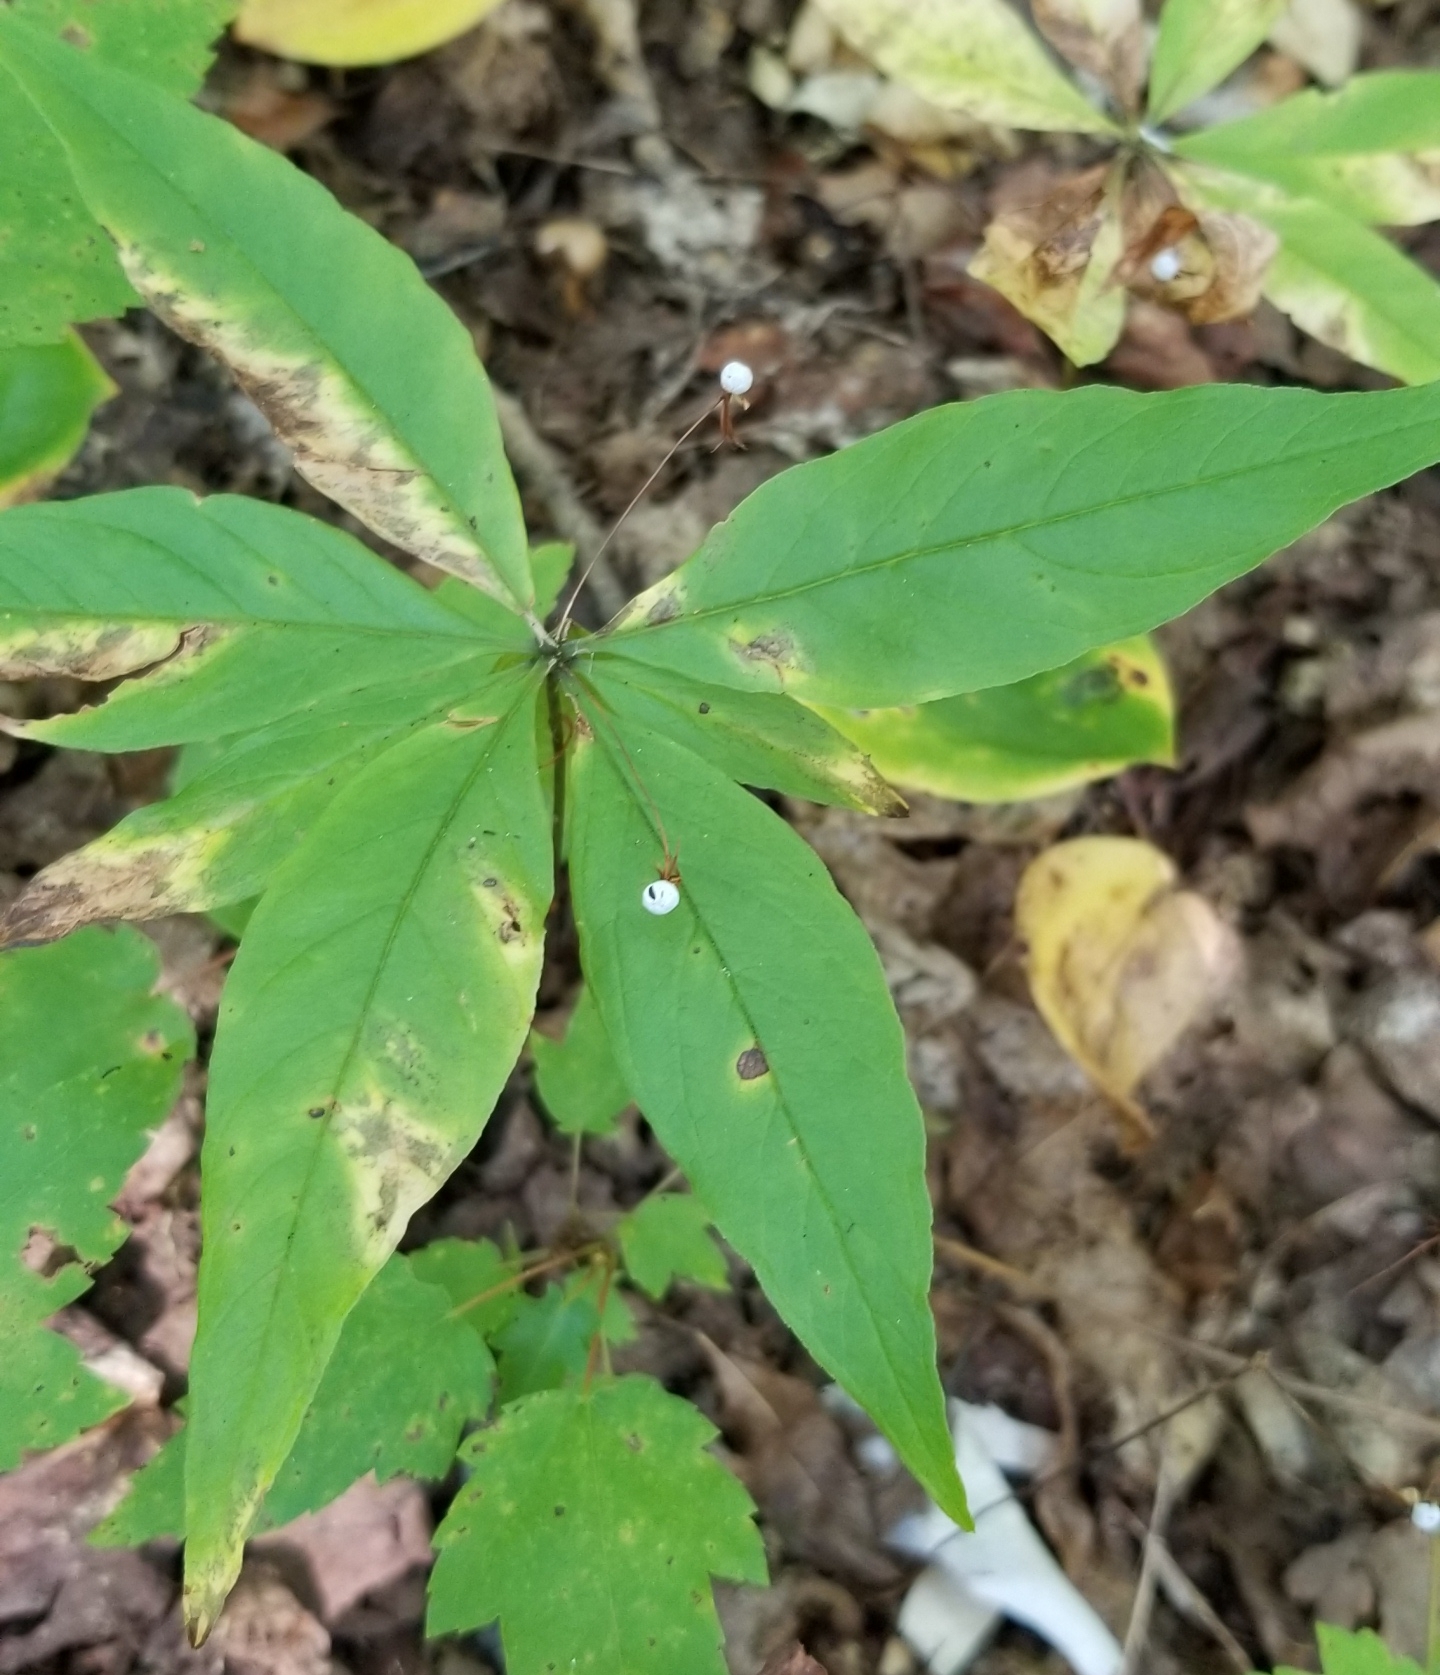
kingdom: Plantae
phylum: Tracheophyta
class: Magnoliopsida
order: Ericales
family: Primulaceae
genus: Lysimachia
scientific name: Lysimachia borealis
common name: American starflower
